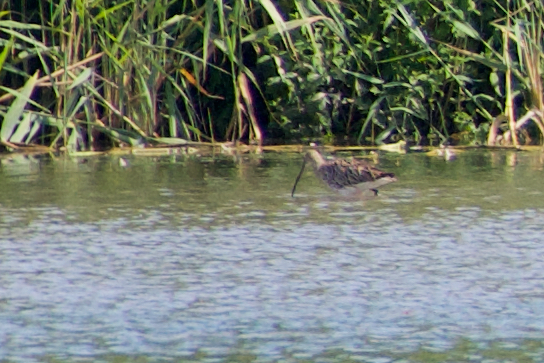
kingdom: Animalia
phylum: Chordata
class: Aves
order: Charadriiformes
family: Scolopacidae
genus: Numenius
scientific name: Numenius arquata
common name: Eurasian curlew
